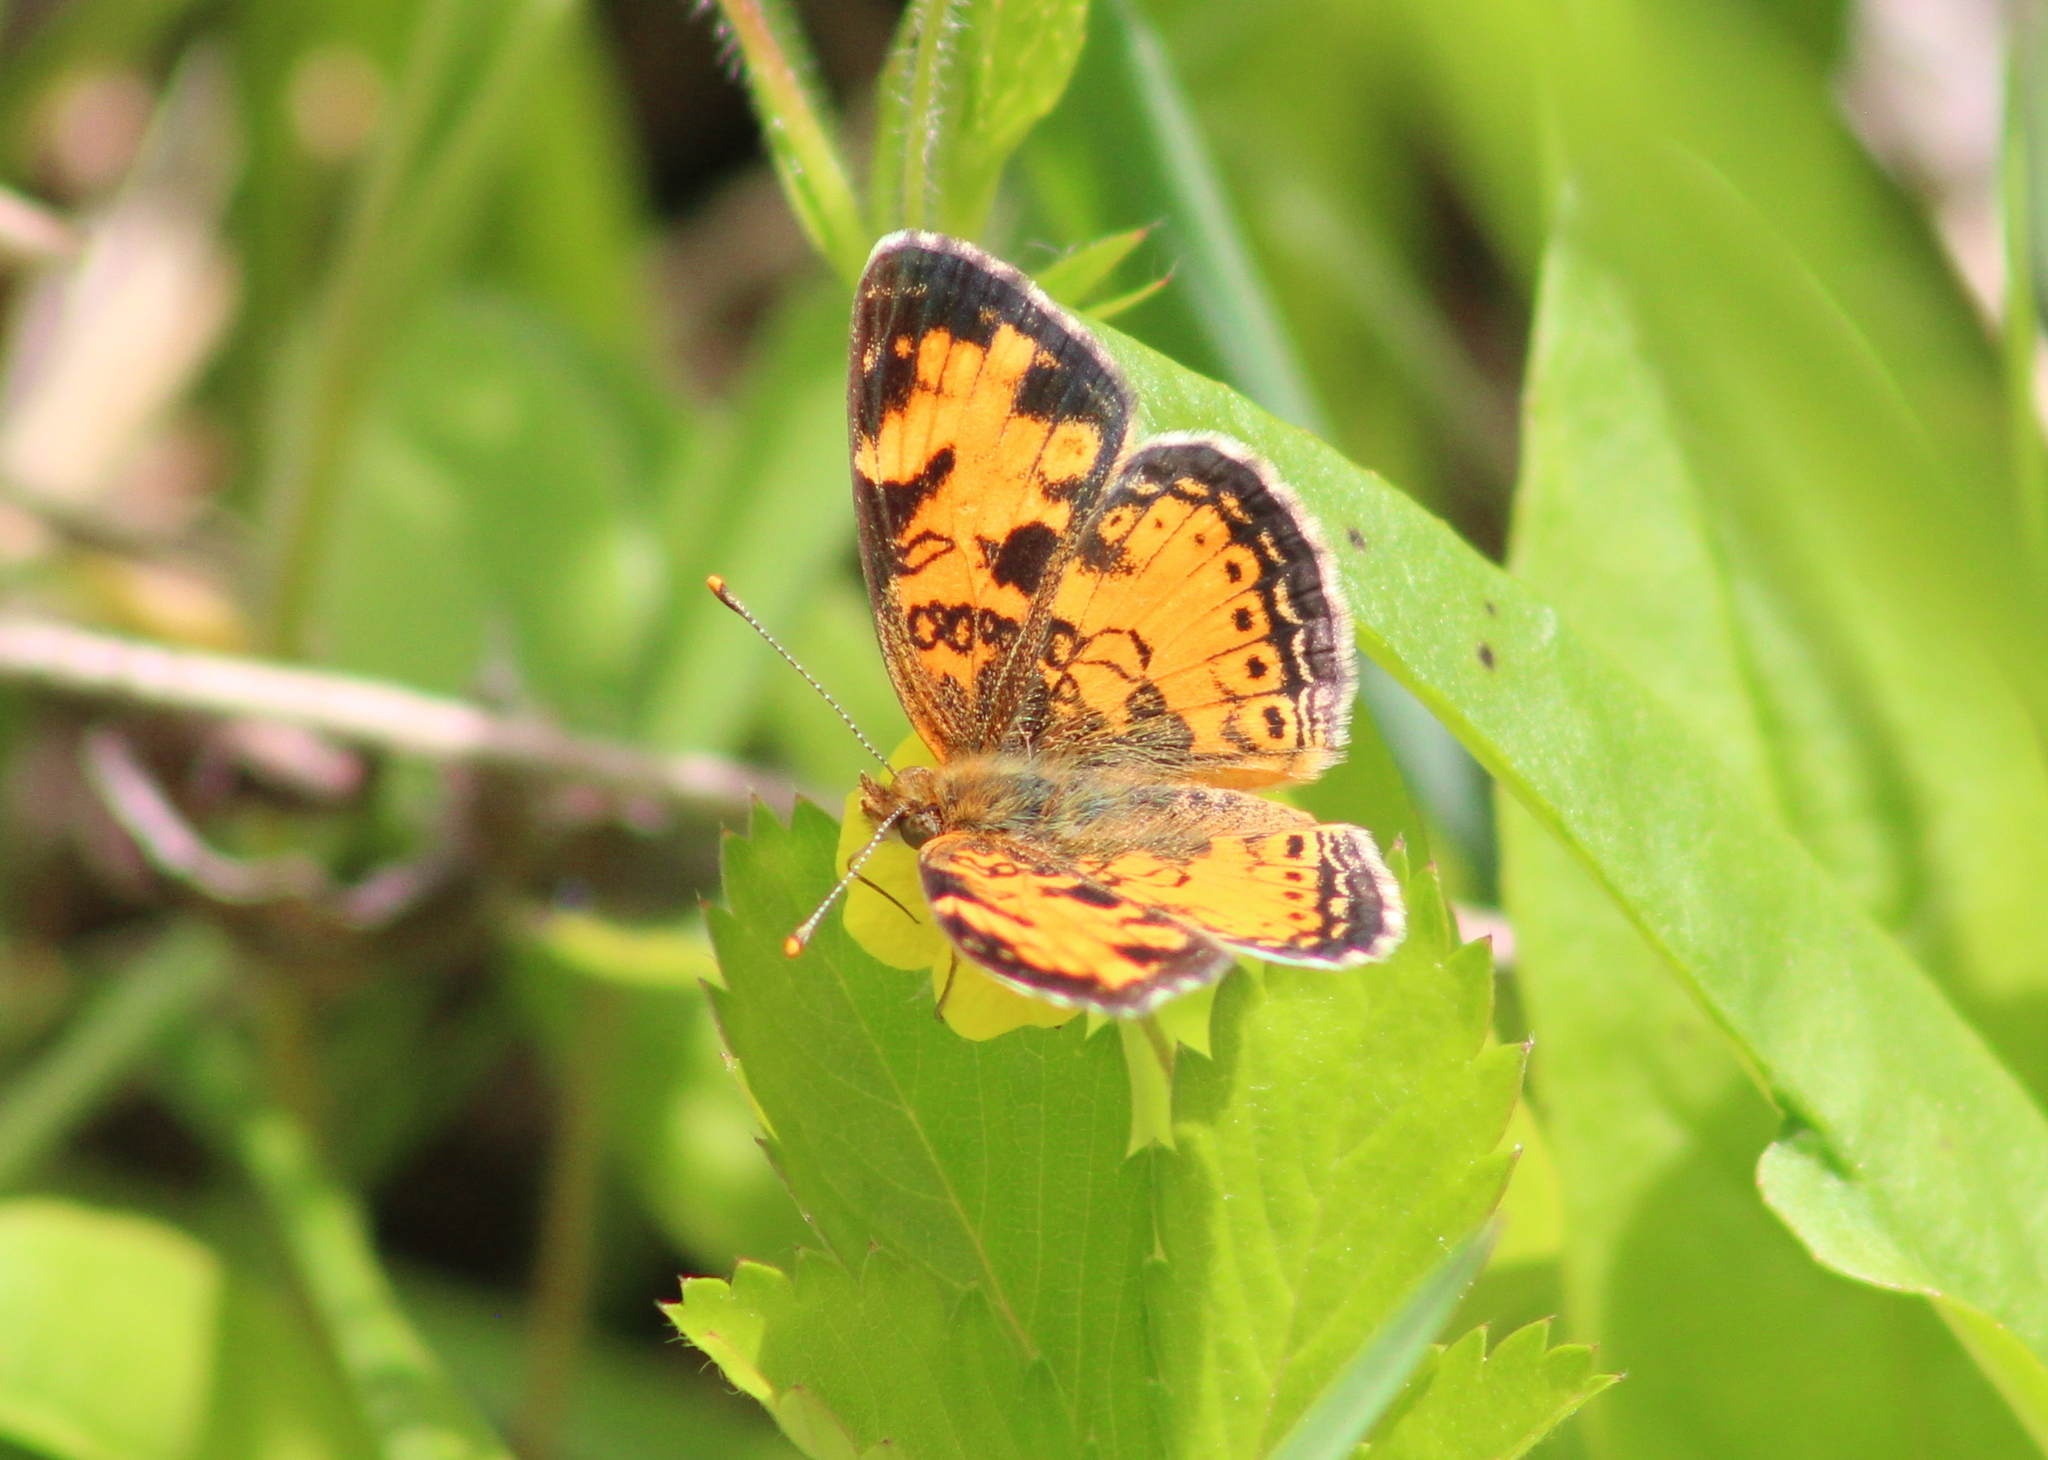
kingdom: Animalia
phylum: Arthropoda
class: Insecta
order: Lepidoptera
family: Nymphalidae
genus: Phyciodes
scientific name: Phyciodes tharos
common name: Pearl crescent
